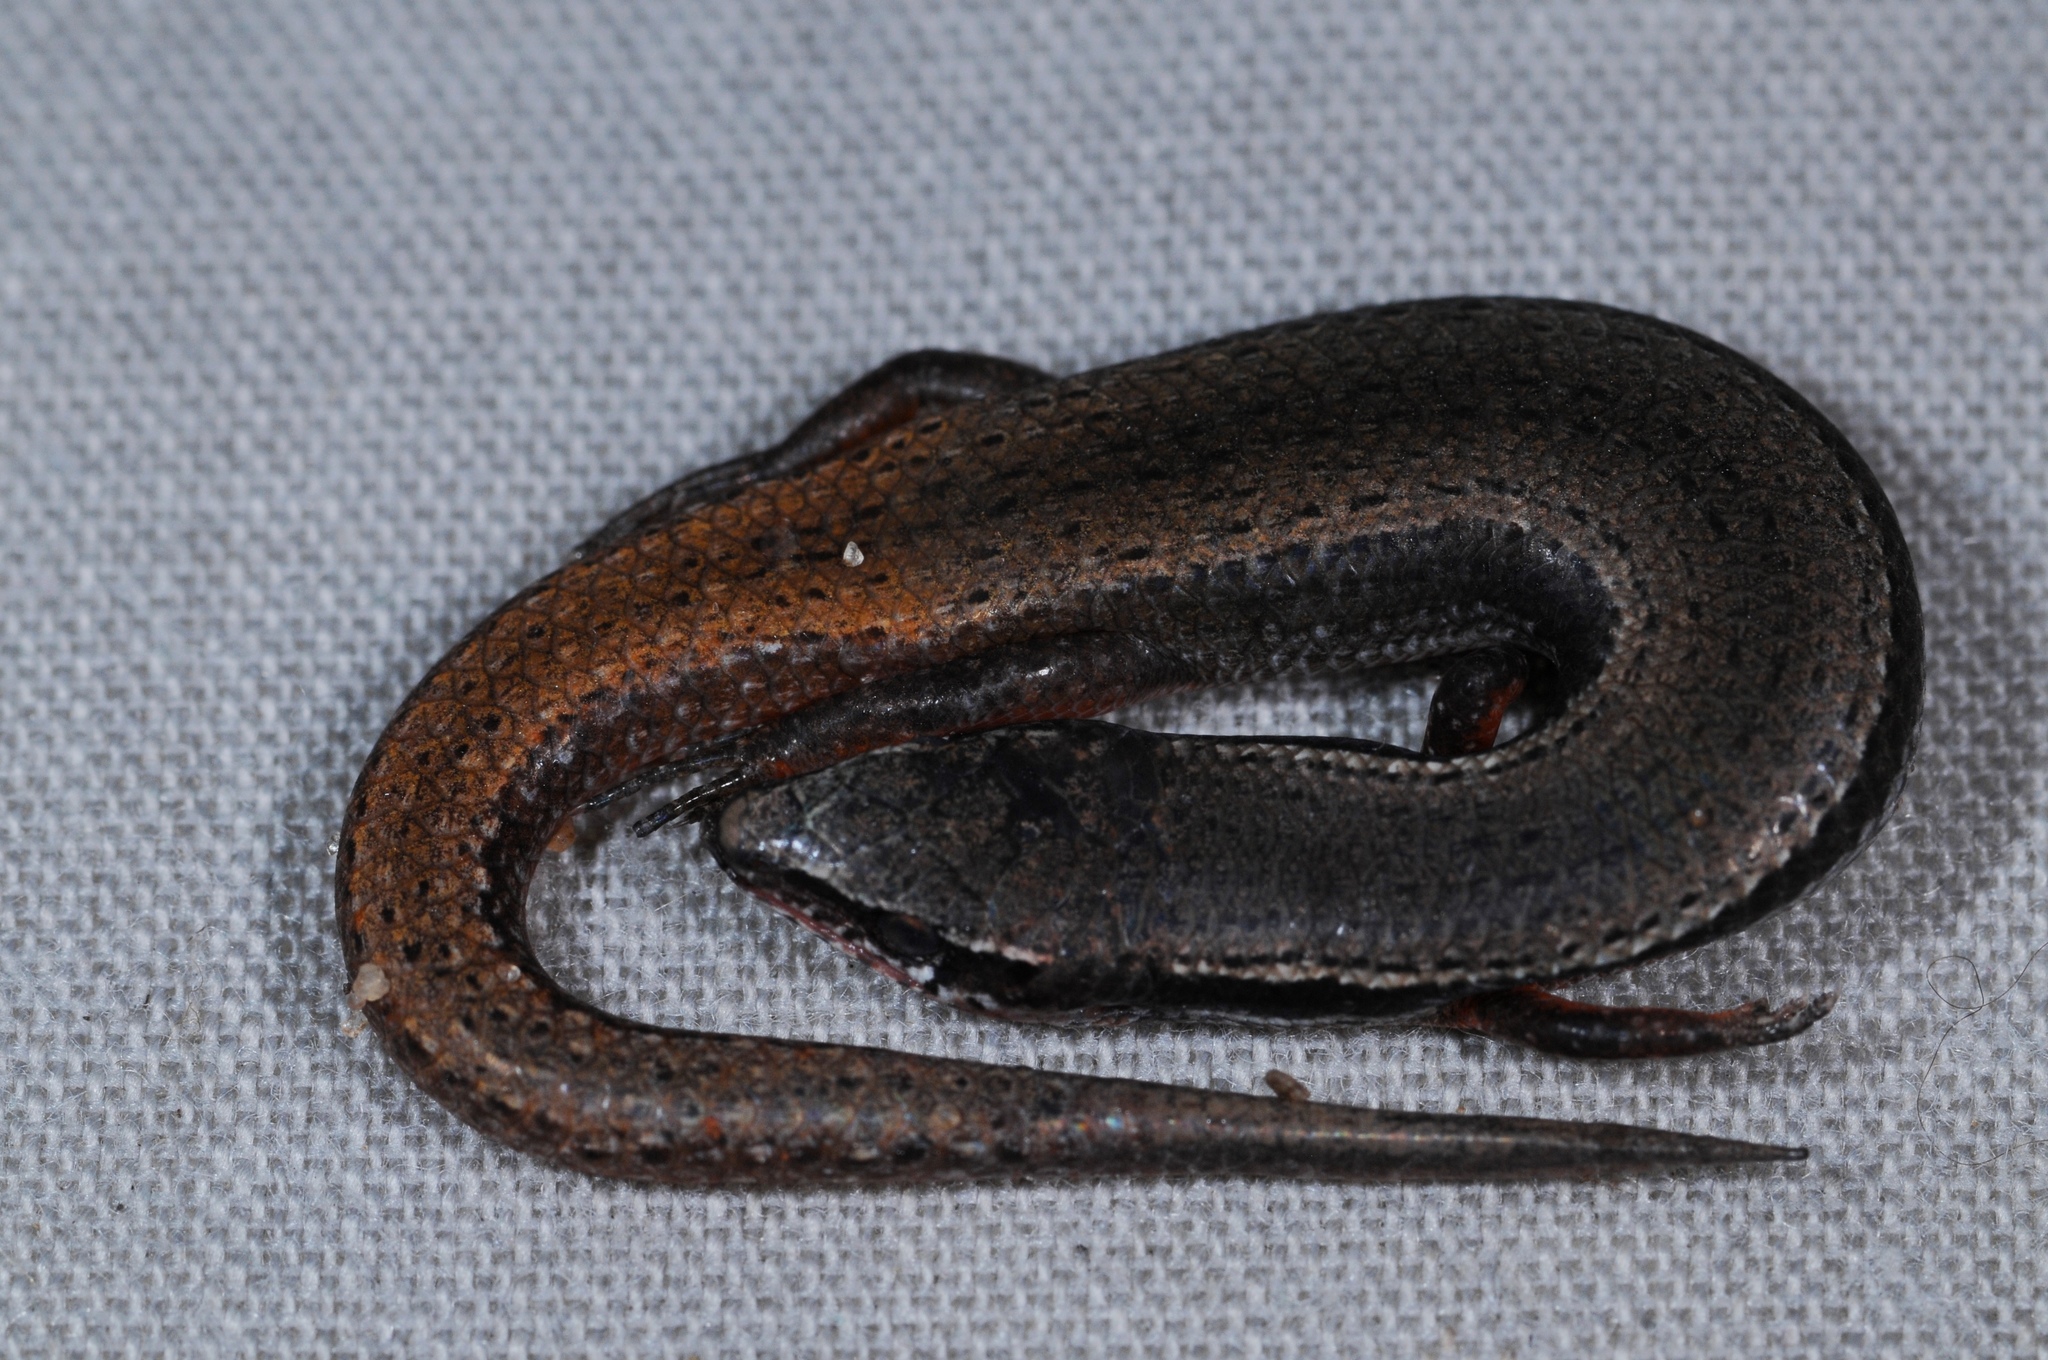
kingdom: Animalia
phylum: Chordata
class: Squamata
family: Scincidae
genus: Panaspis
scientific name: Panaspis wahlbergii
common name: Angolan snake-eyed skink
